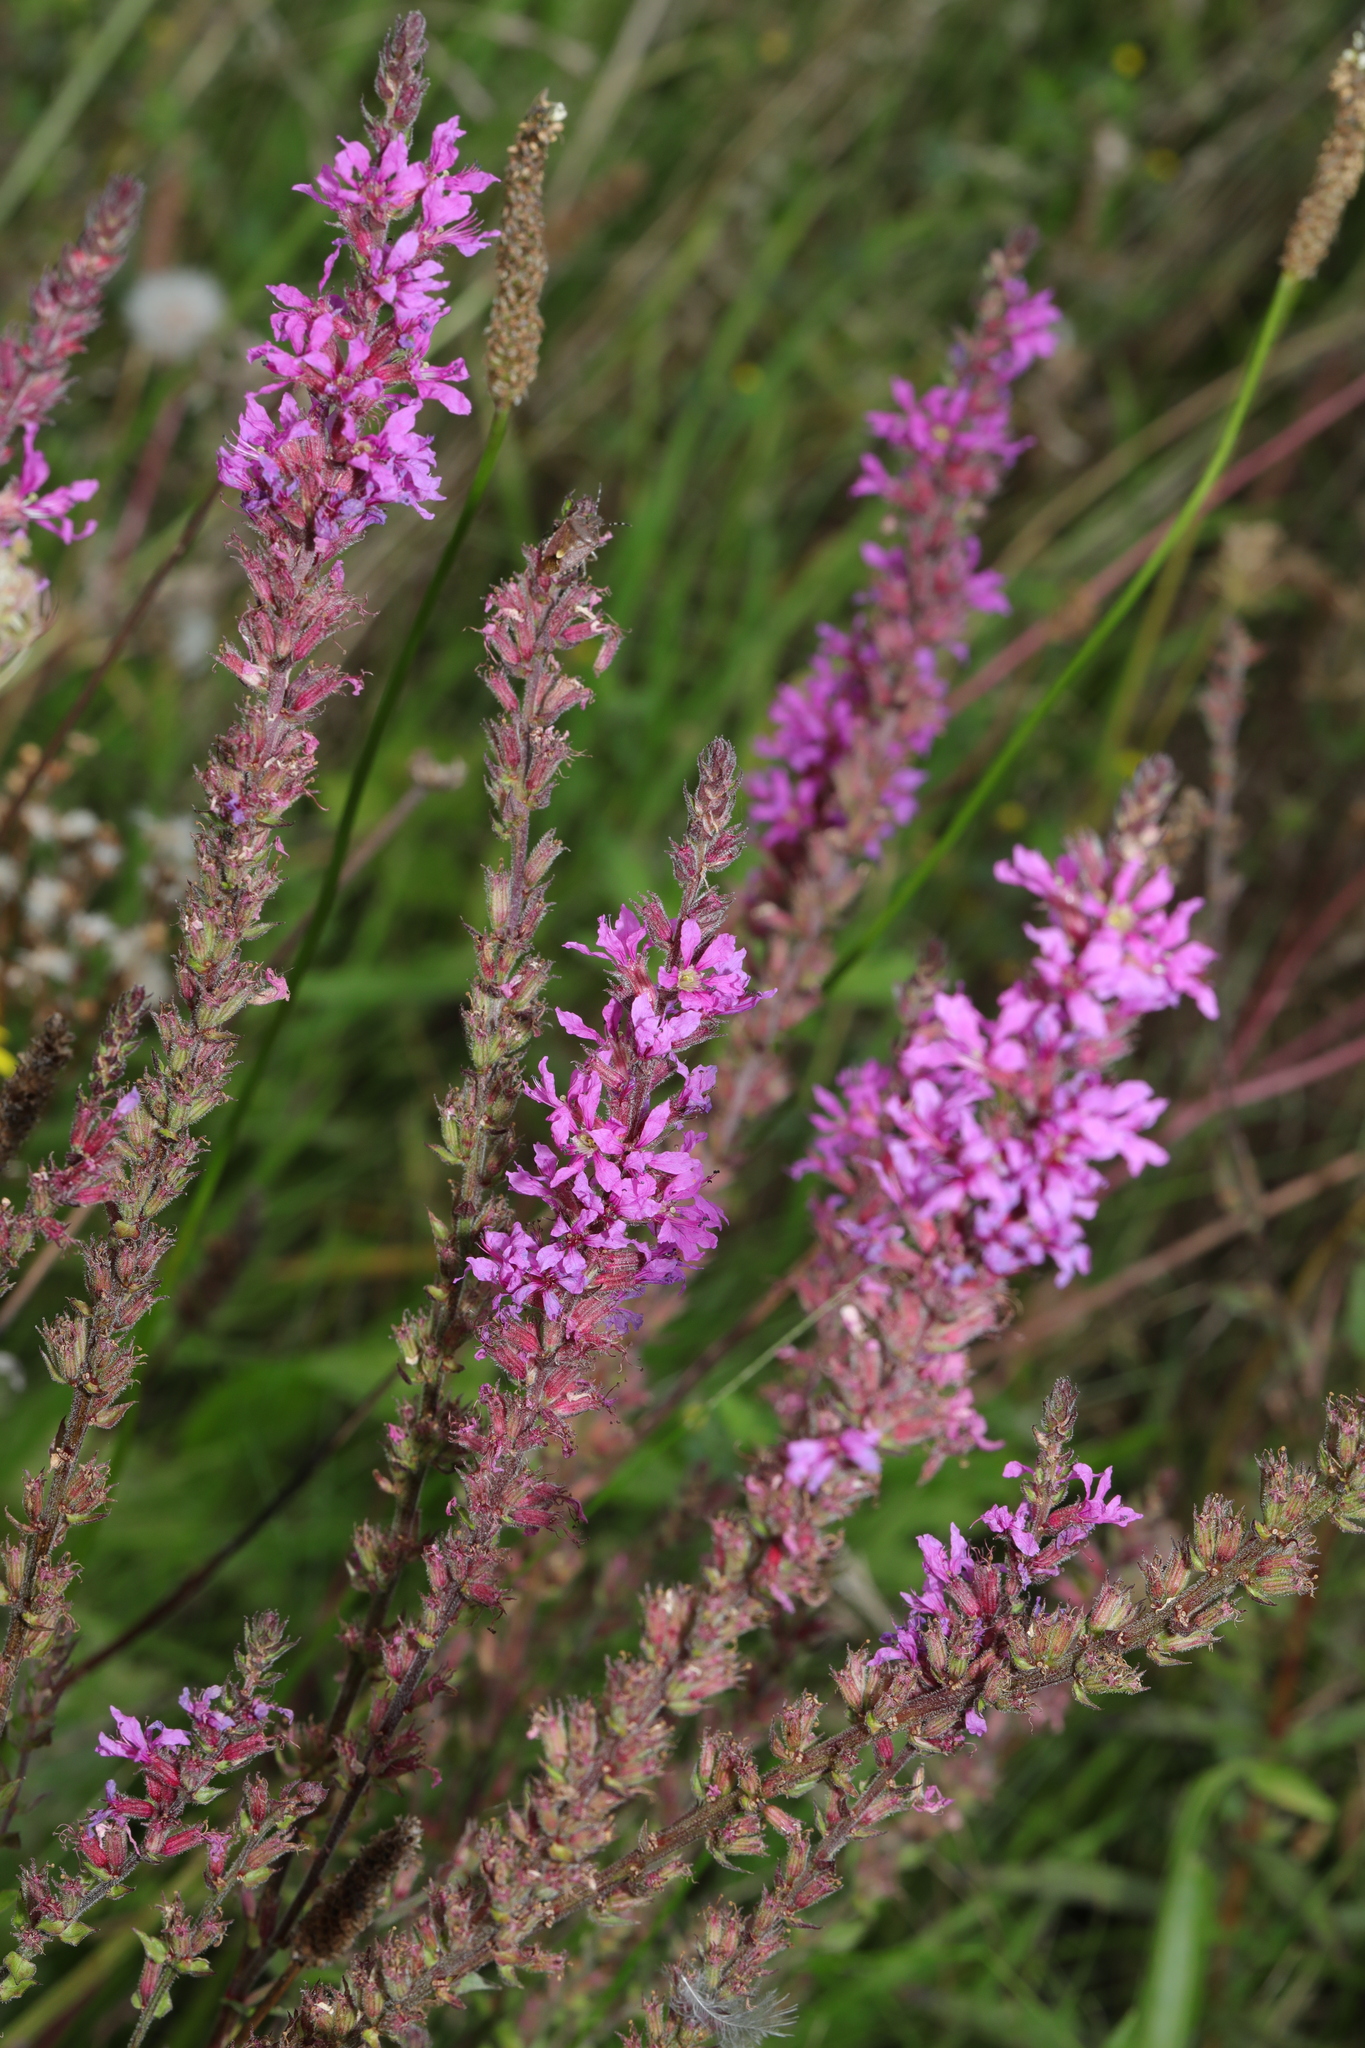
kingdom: Plantae
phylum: Tracheophyta
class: Magnoliopsida
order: Myrtales
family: Lythraceae
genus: Lythrum
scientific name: Lythrum salicaria
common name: Purple loosestrife
